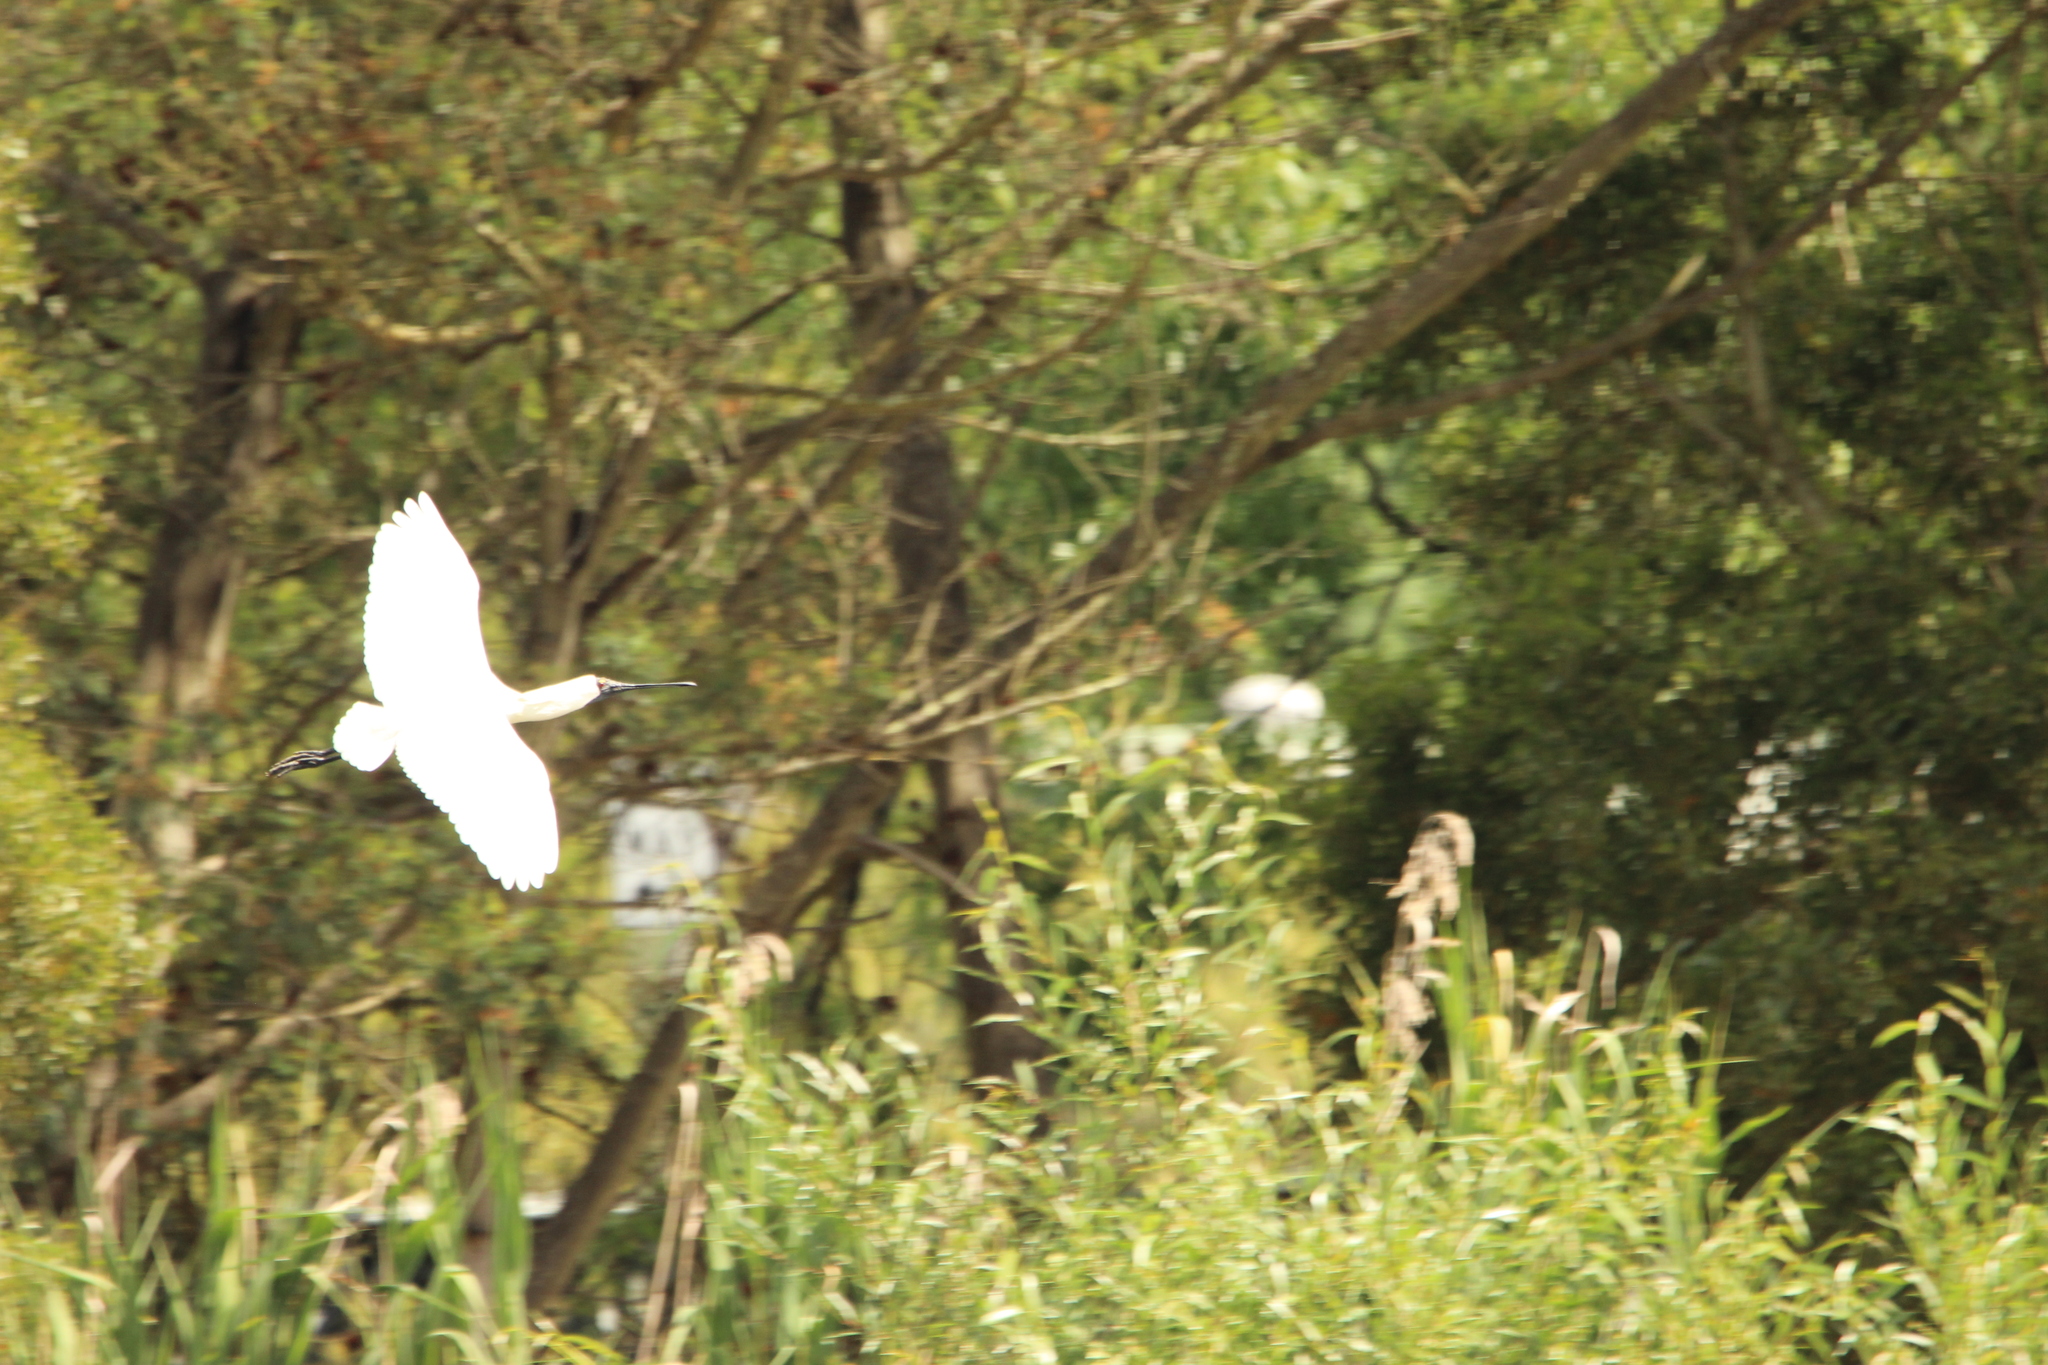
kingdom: Animalia
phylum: Chordata
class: Aves
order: Pelecaniformes
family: Threskiornithidae
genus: Platalea
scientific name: Platalea regia
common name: Royal spoonbill
